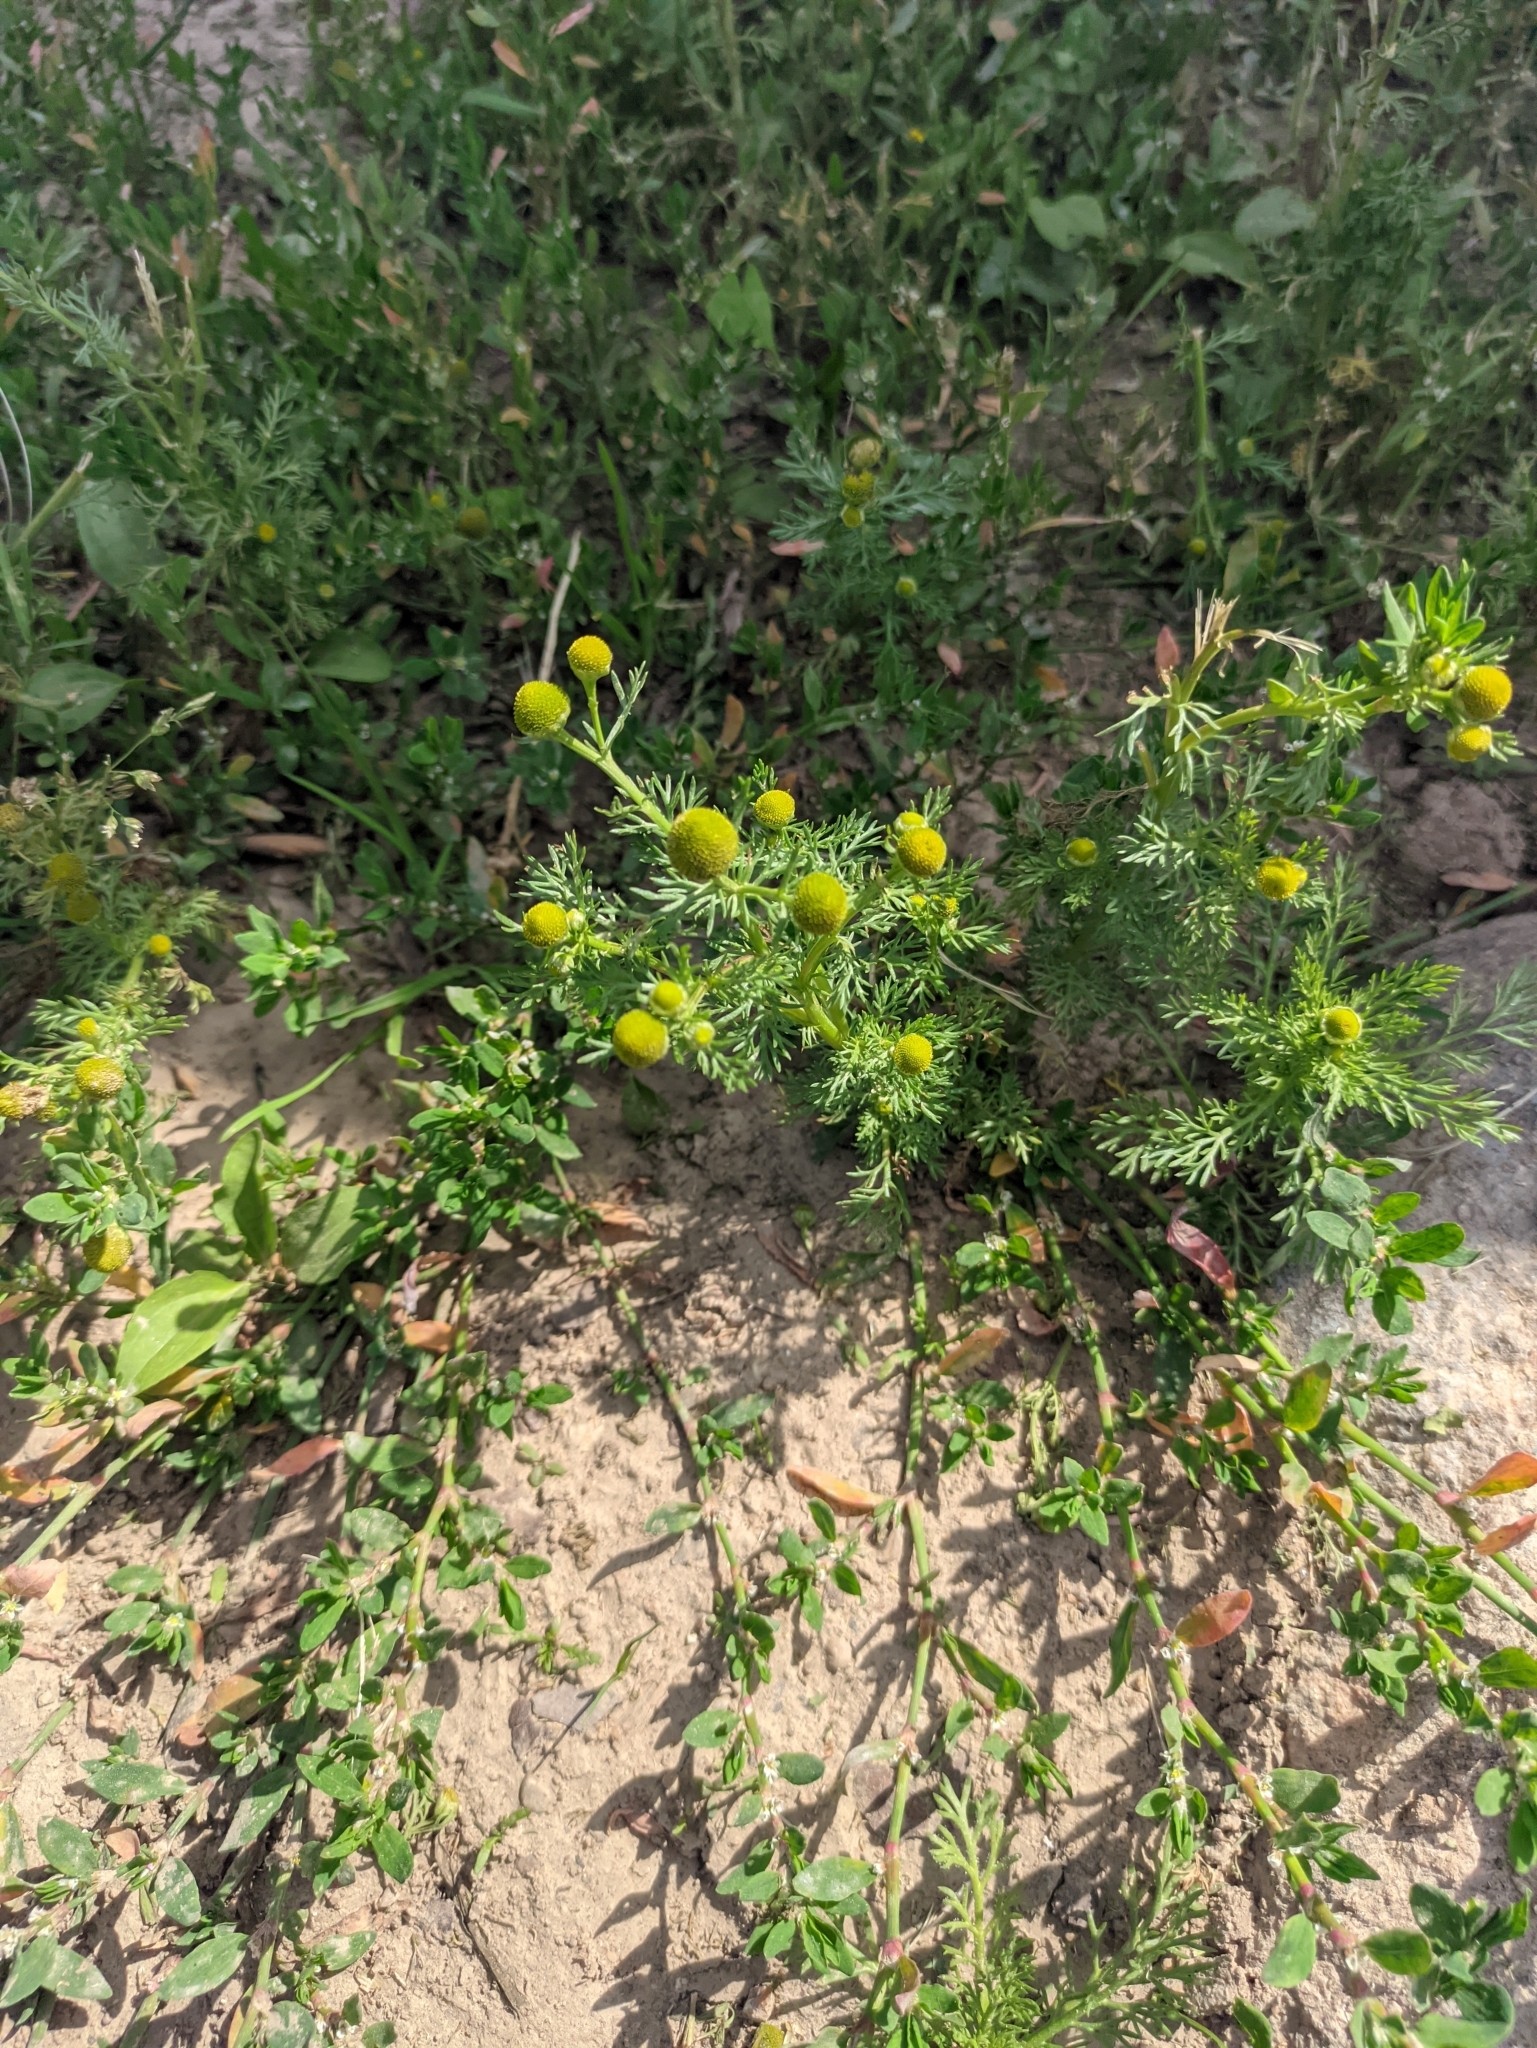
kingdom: Plantae
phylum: Tracheophyta
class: Magnoliopsida
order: Asterales
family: Asteraceae
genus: Matricaria
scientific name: Matricaria discoidea
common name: Disc mayweed
